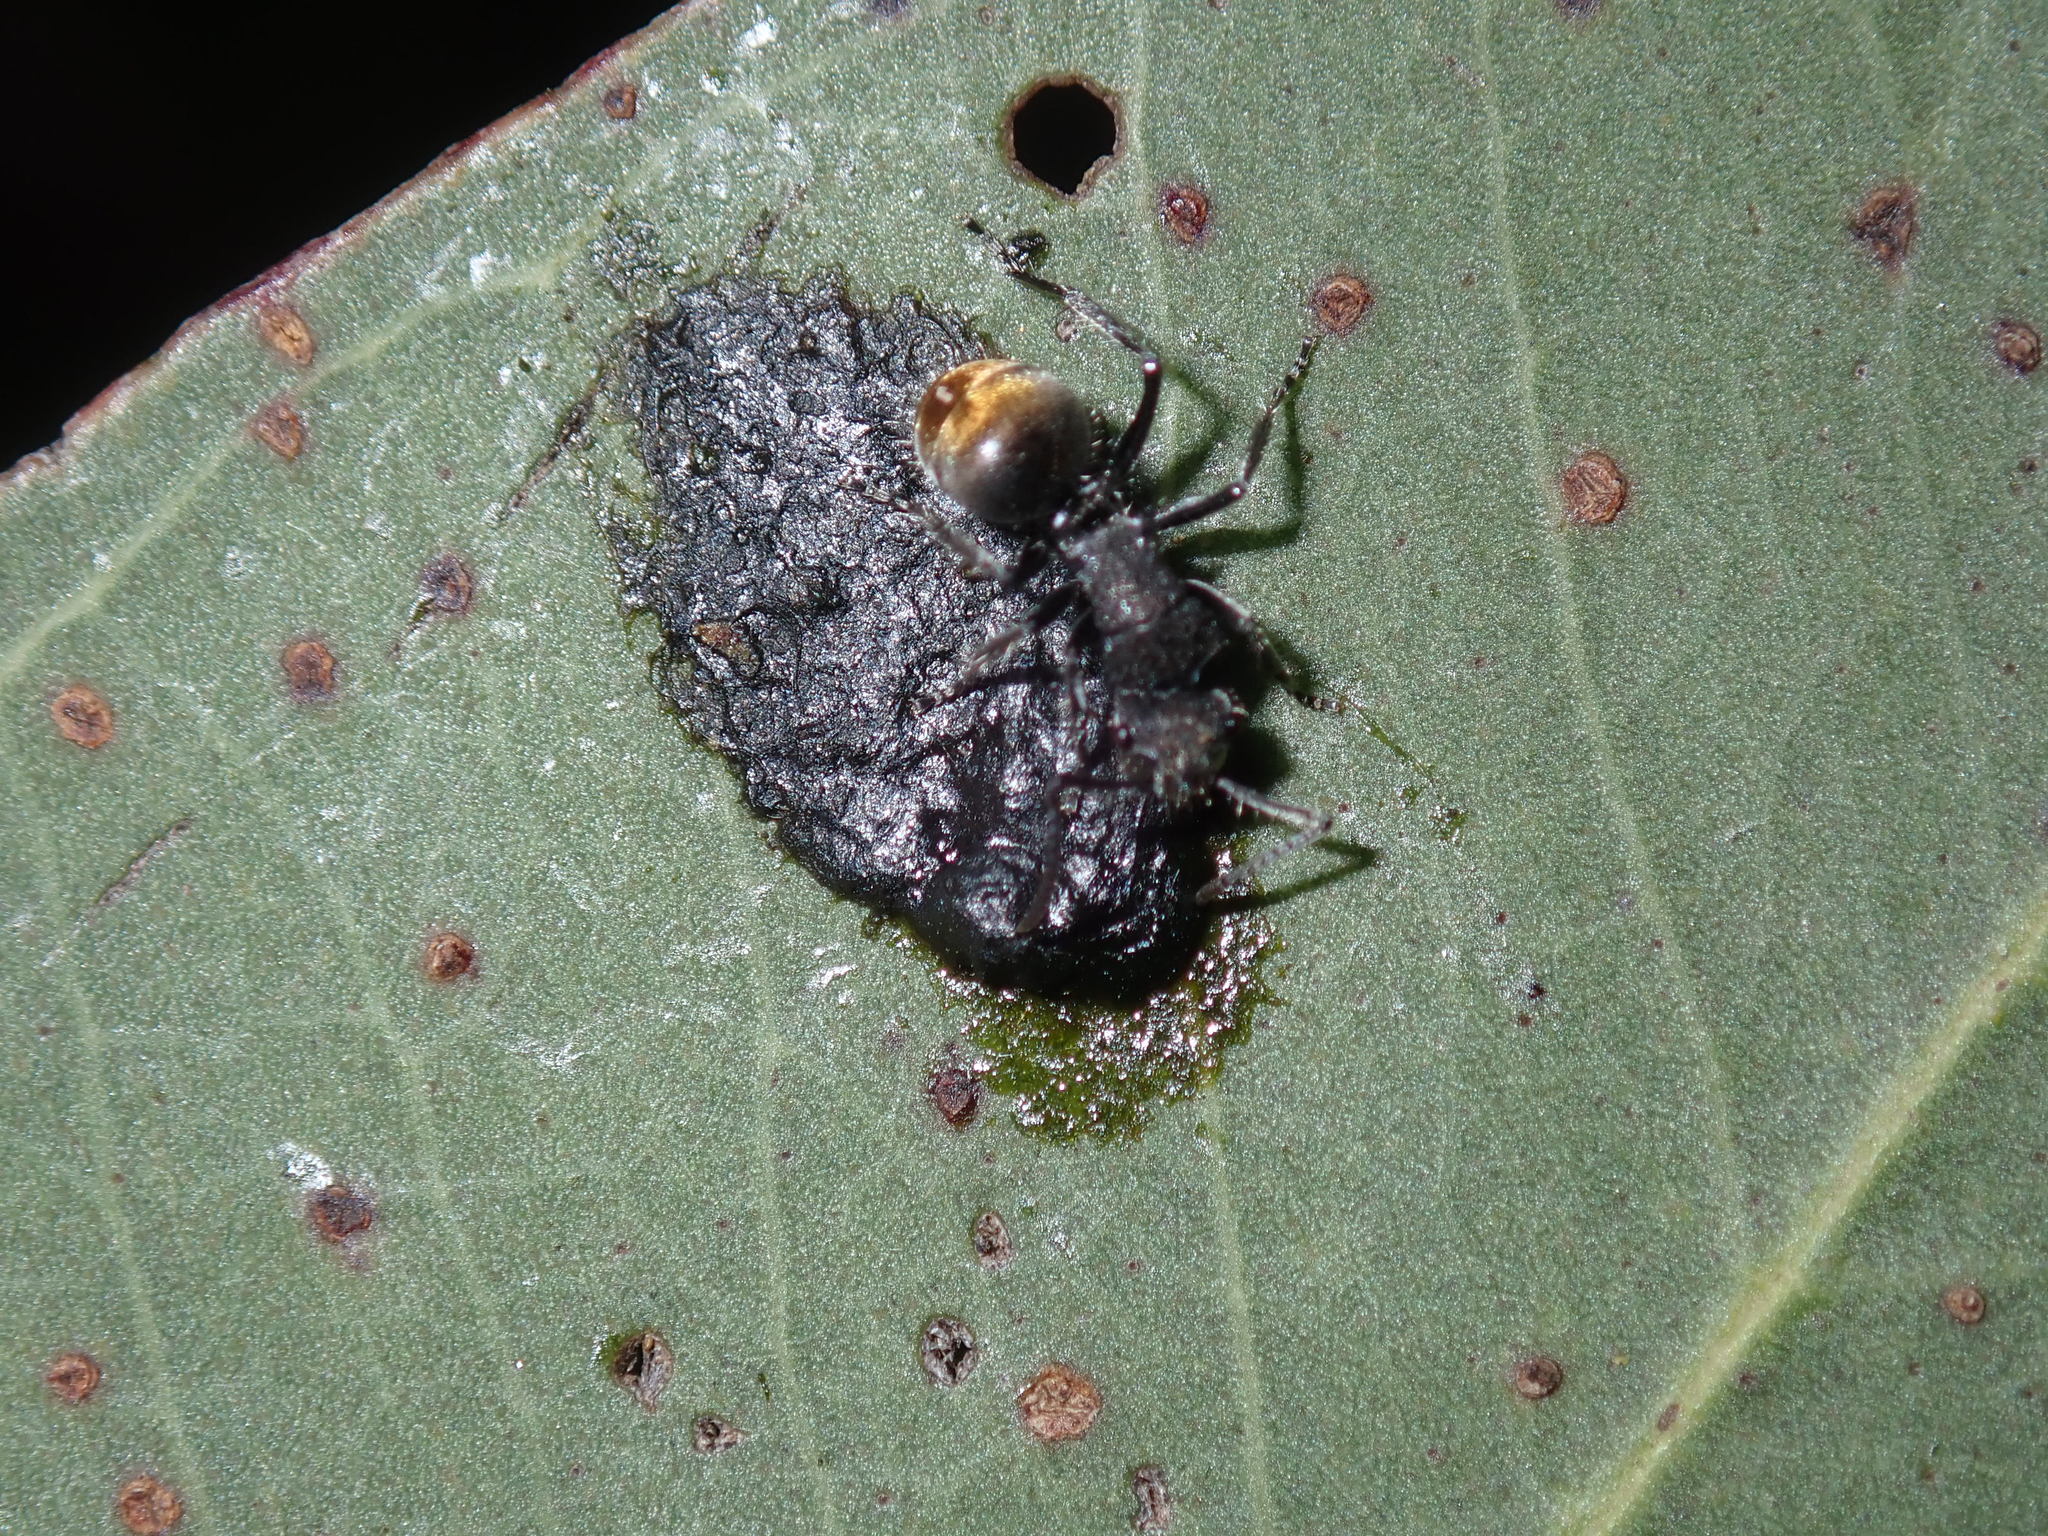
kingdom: Animalia
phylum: Arthropoda
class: Insecta
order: Hymenoptera
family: Formicidae
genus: Polyrhachis
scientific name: Polyrhachis vermiculosa
